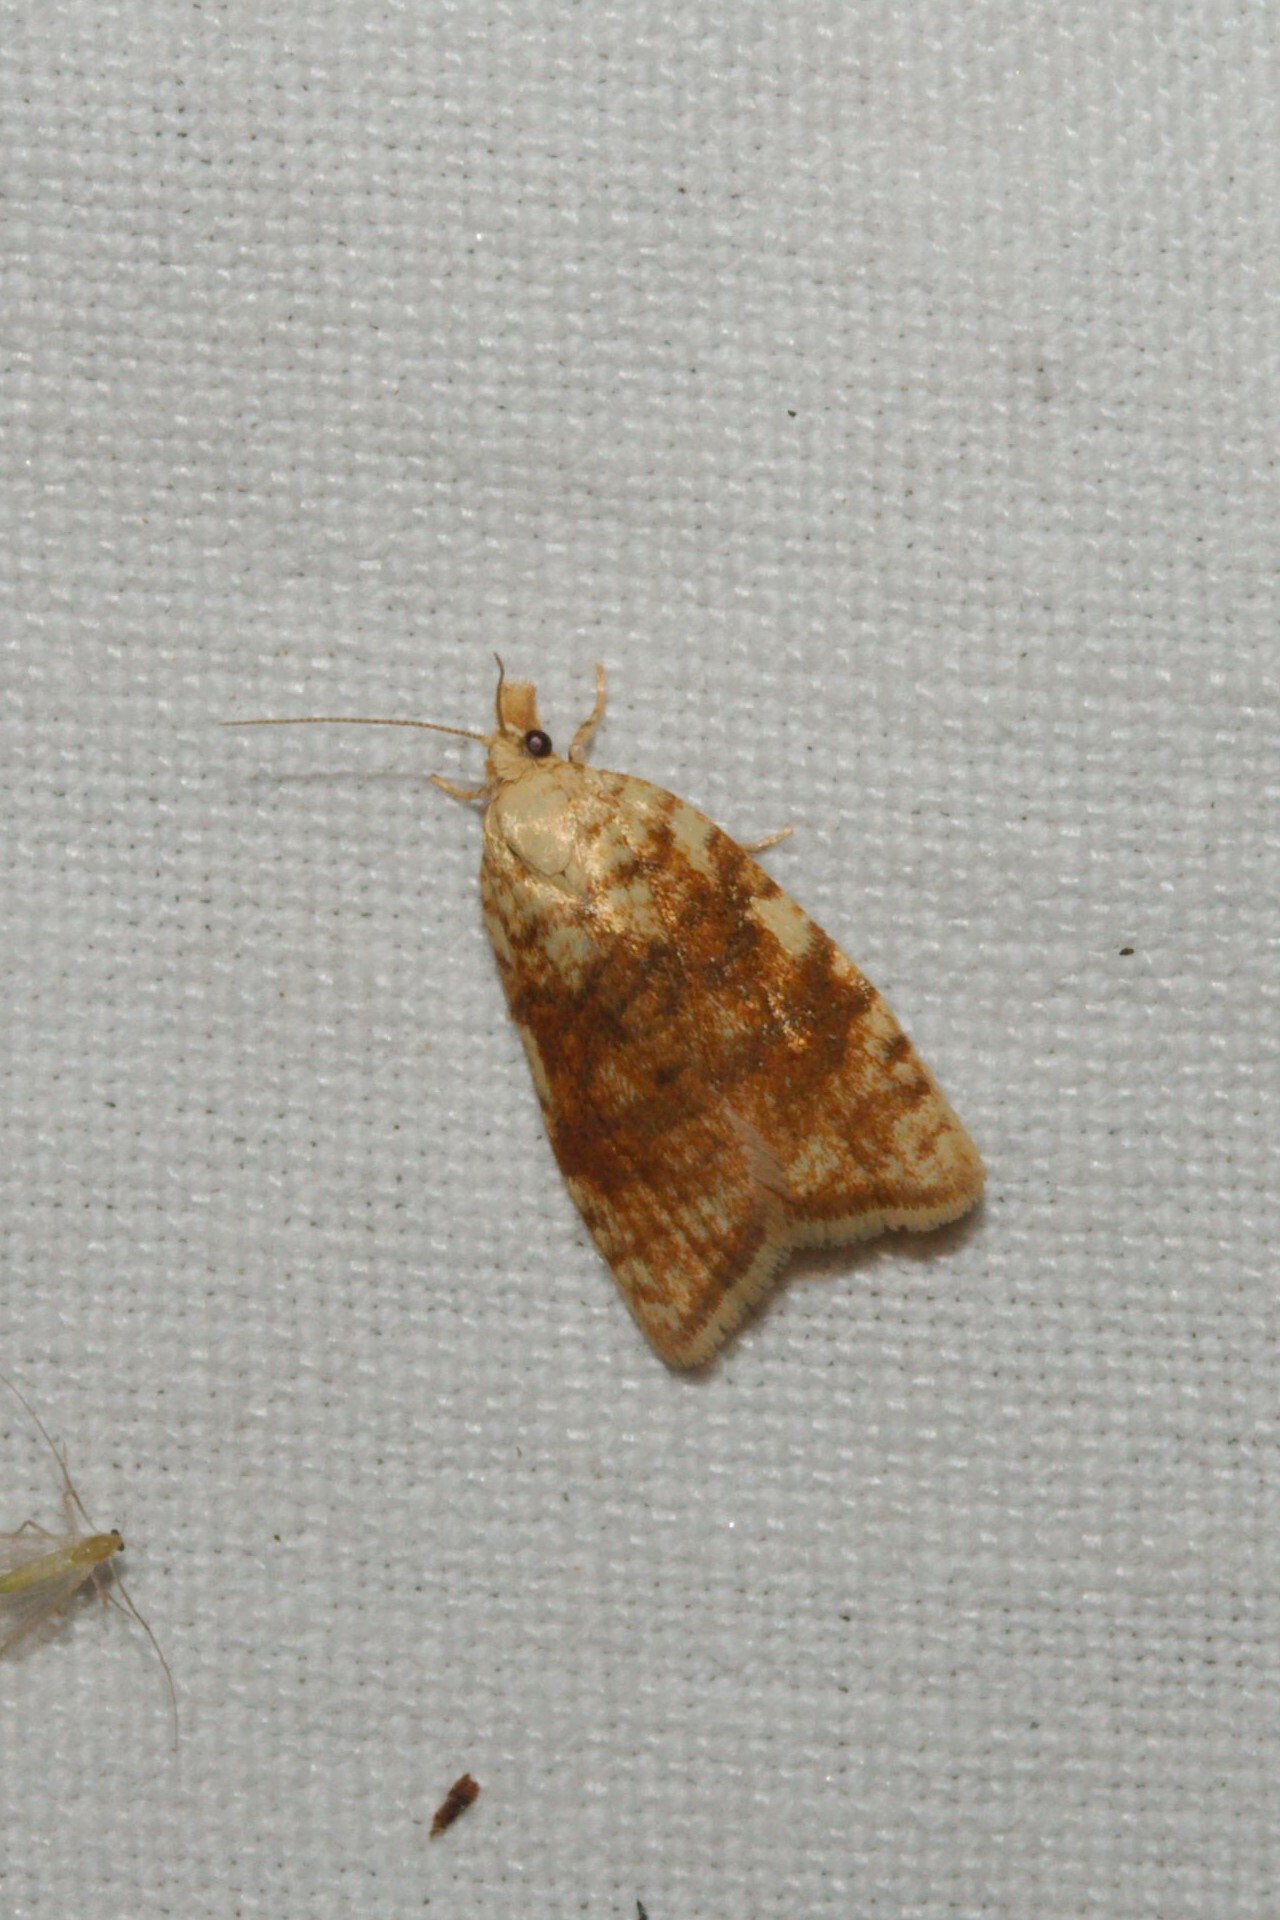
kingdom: Animalia
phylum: Arthropoda
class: Insecta
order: Lepidoptera
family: Tortricidae
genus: Aleimma
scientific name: Aleimma loeflingiana
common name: Yellow oak button
